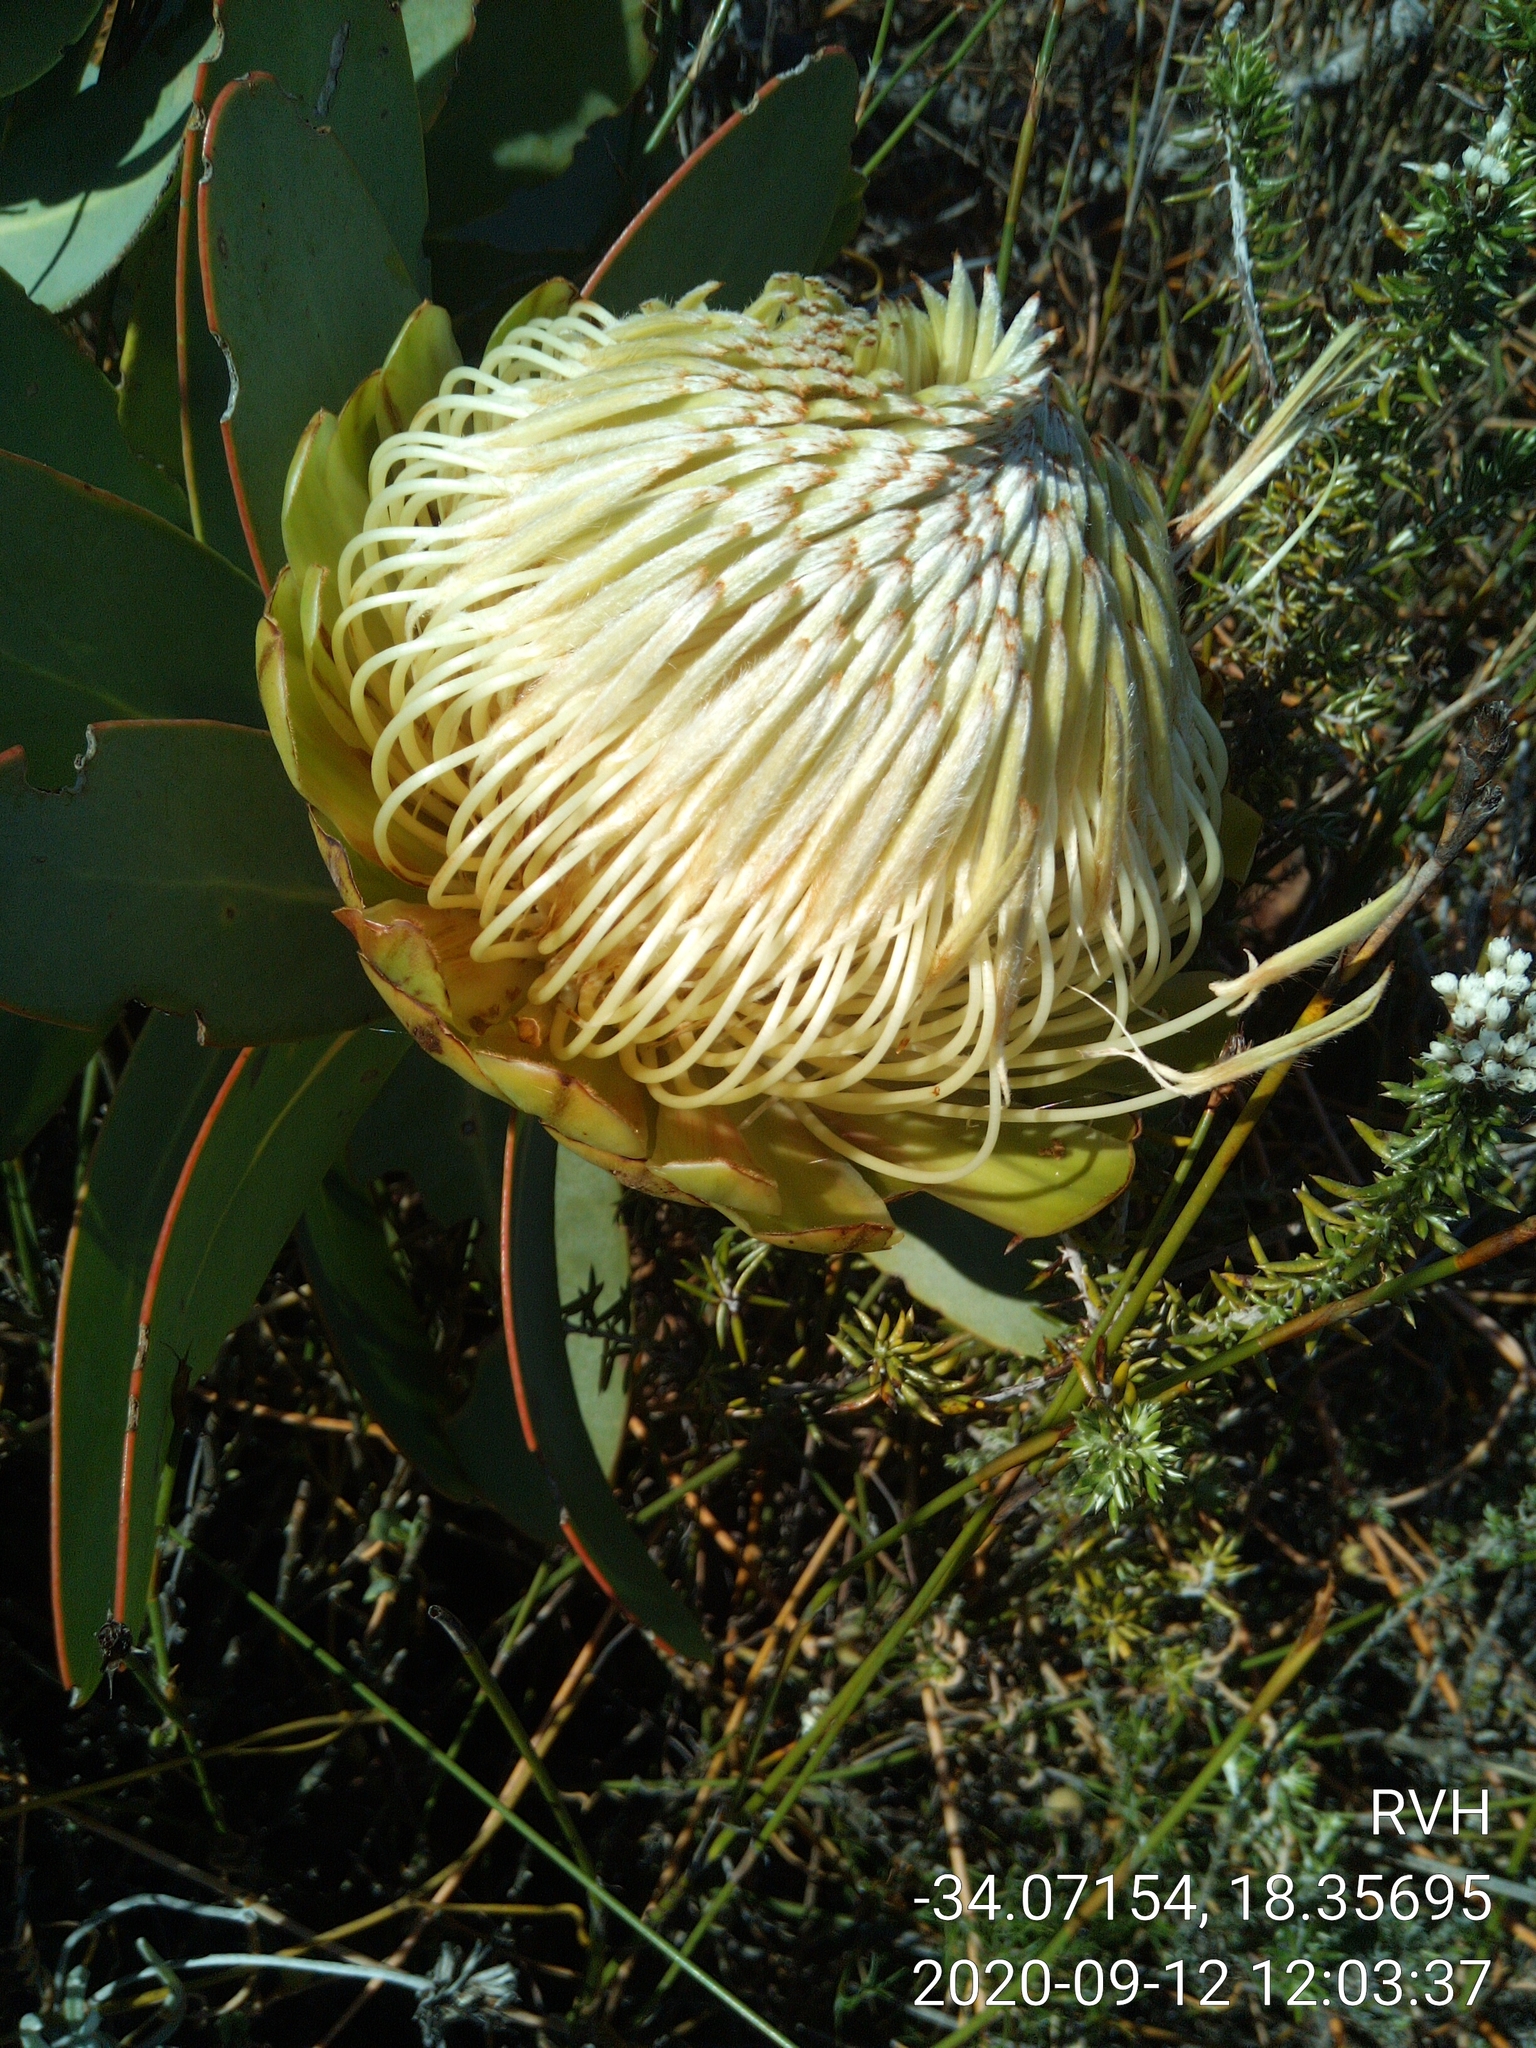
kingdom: Plantae
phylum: Tracheophyta
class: Magnoliopsida
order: Proteales
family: Proteaceae
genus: Protea
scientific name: Protea nitida
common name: Tree protea
